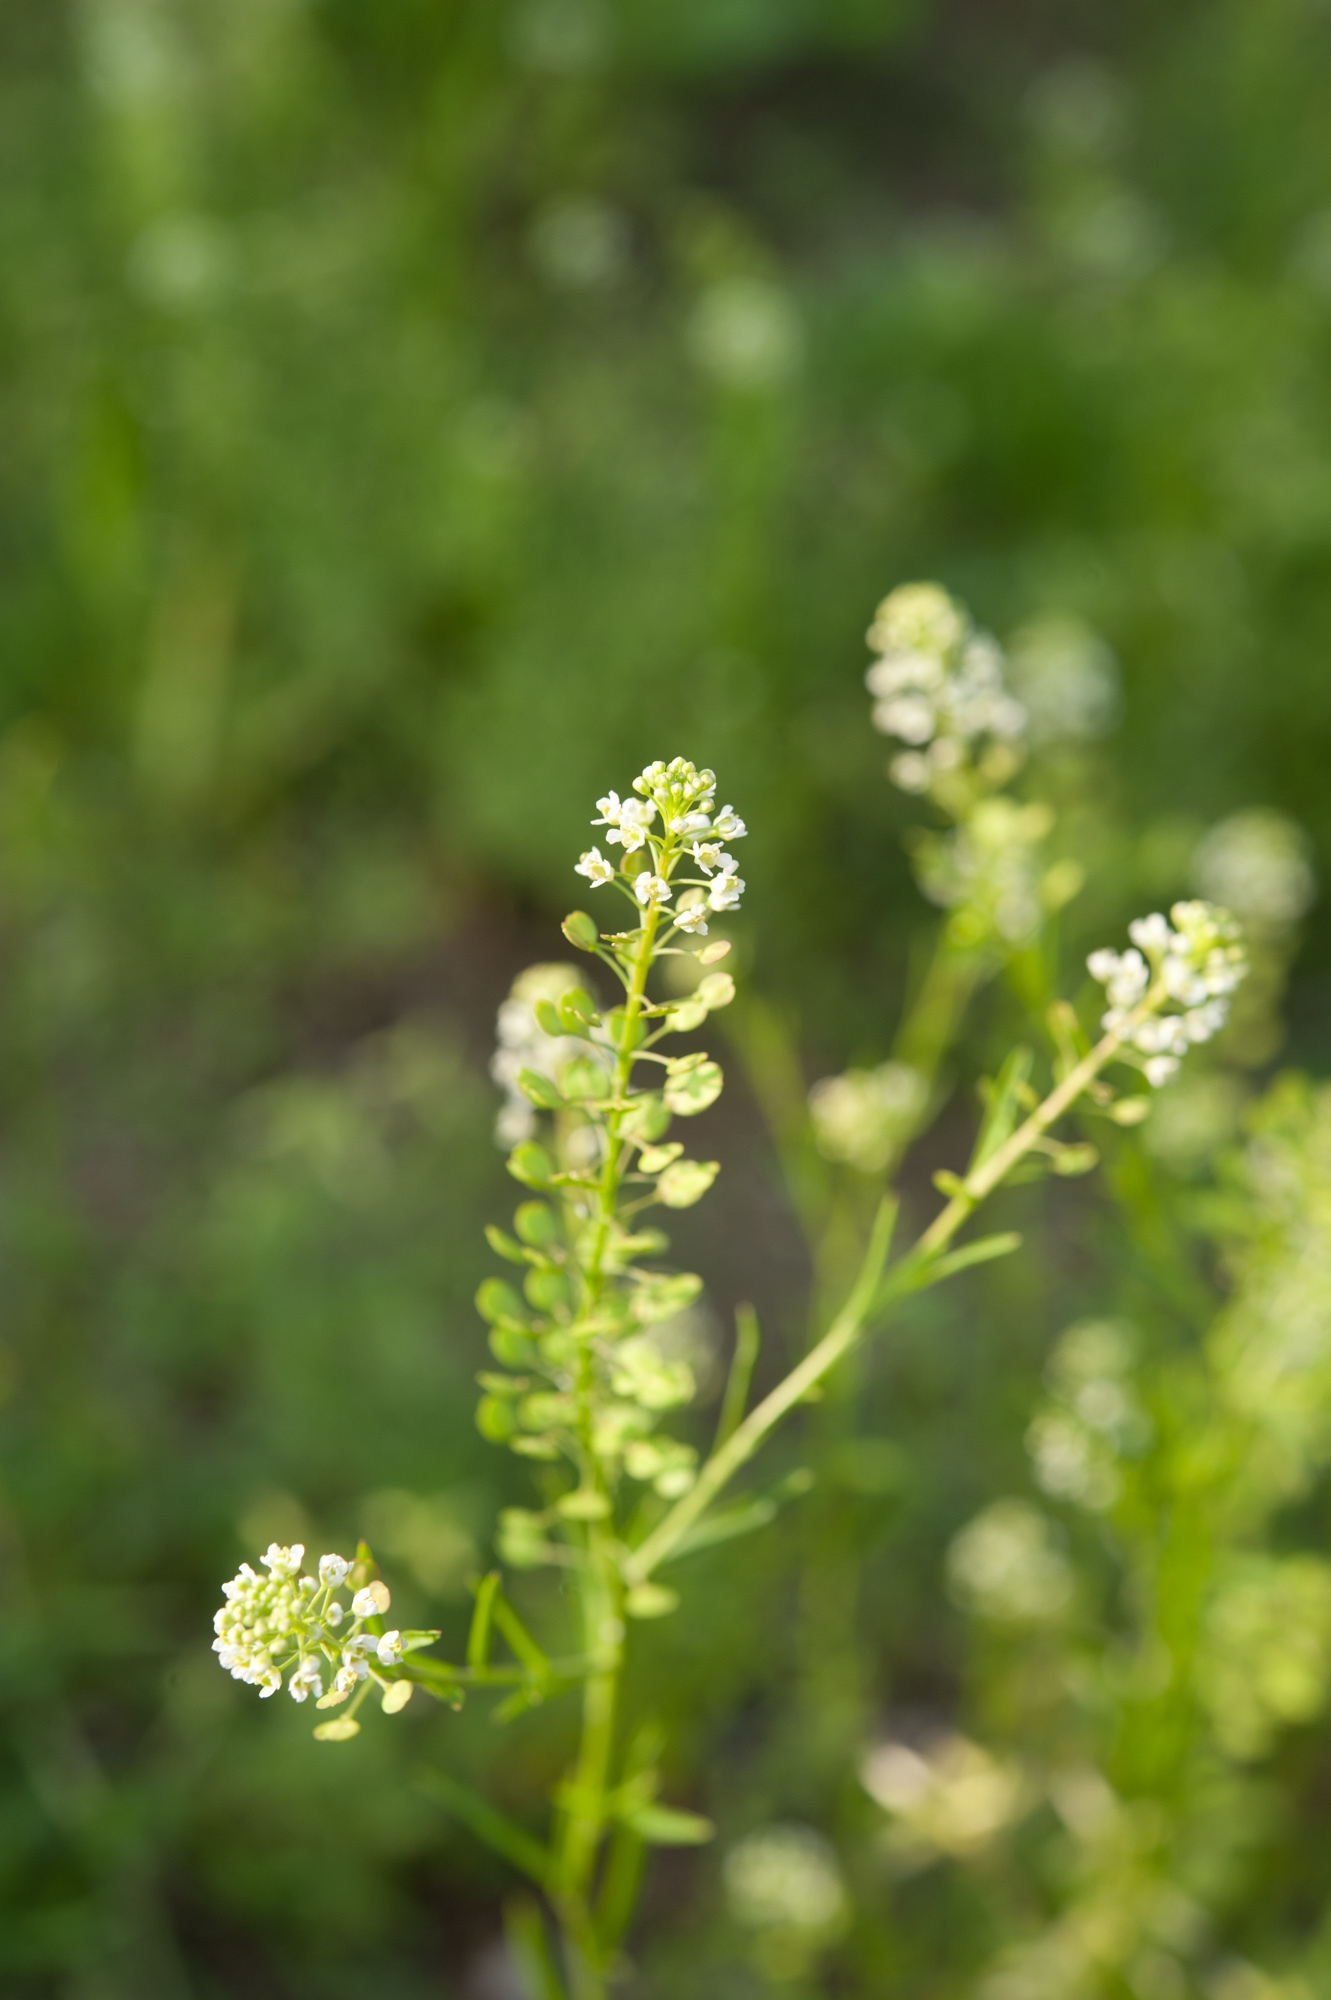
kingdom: Plantae
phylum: Tracheophyta
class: Magnoliopsida
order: Brassicales
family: Brassicaceae
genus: Lepidium
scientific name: Lepidium virginicum
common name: Least pepperwort
